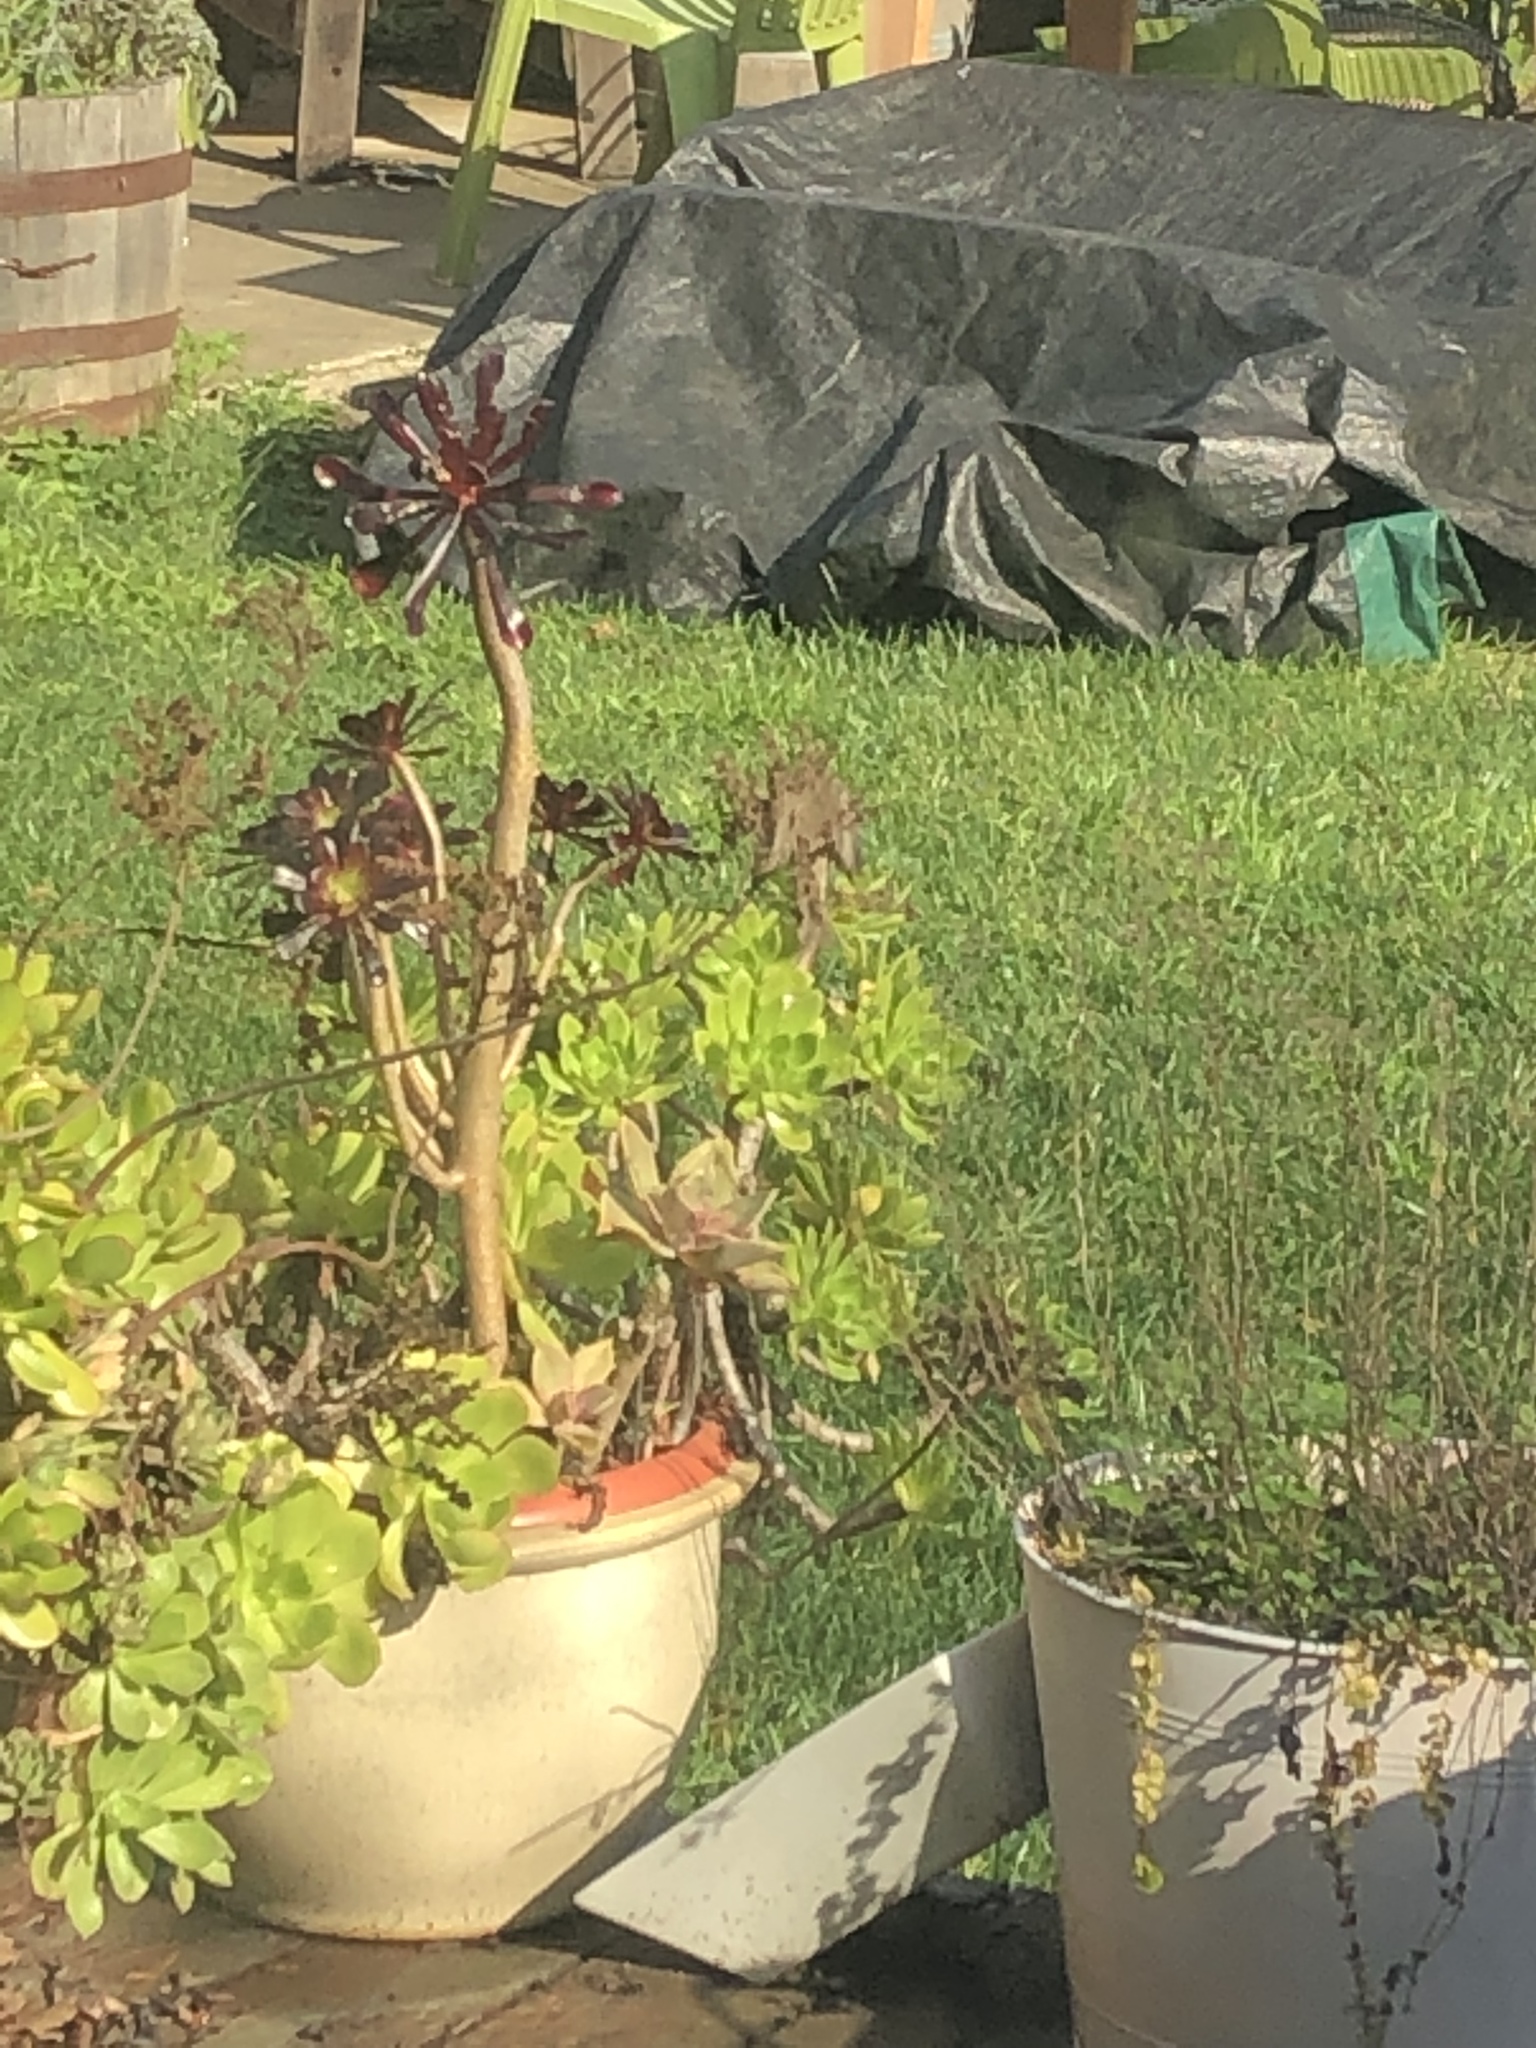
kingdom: Animalia
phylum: Chordata
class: Aves
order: Passeriformes
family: Paridae
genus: Baeolophus
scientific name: Baeolophus inornatus
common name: Oak titmouse
